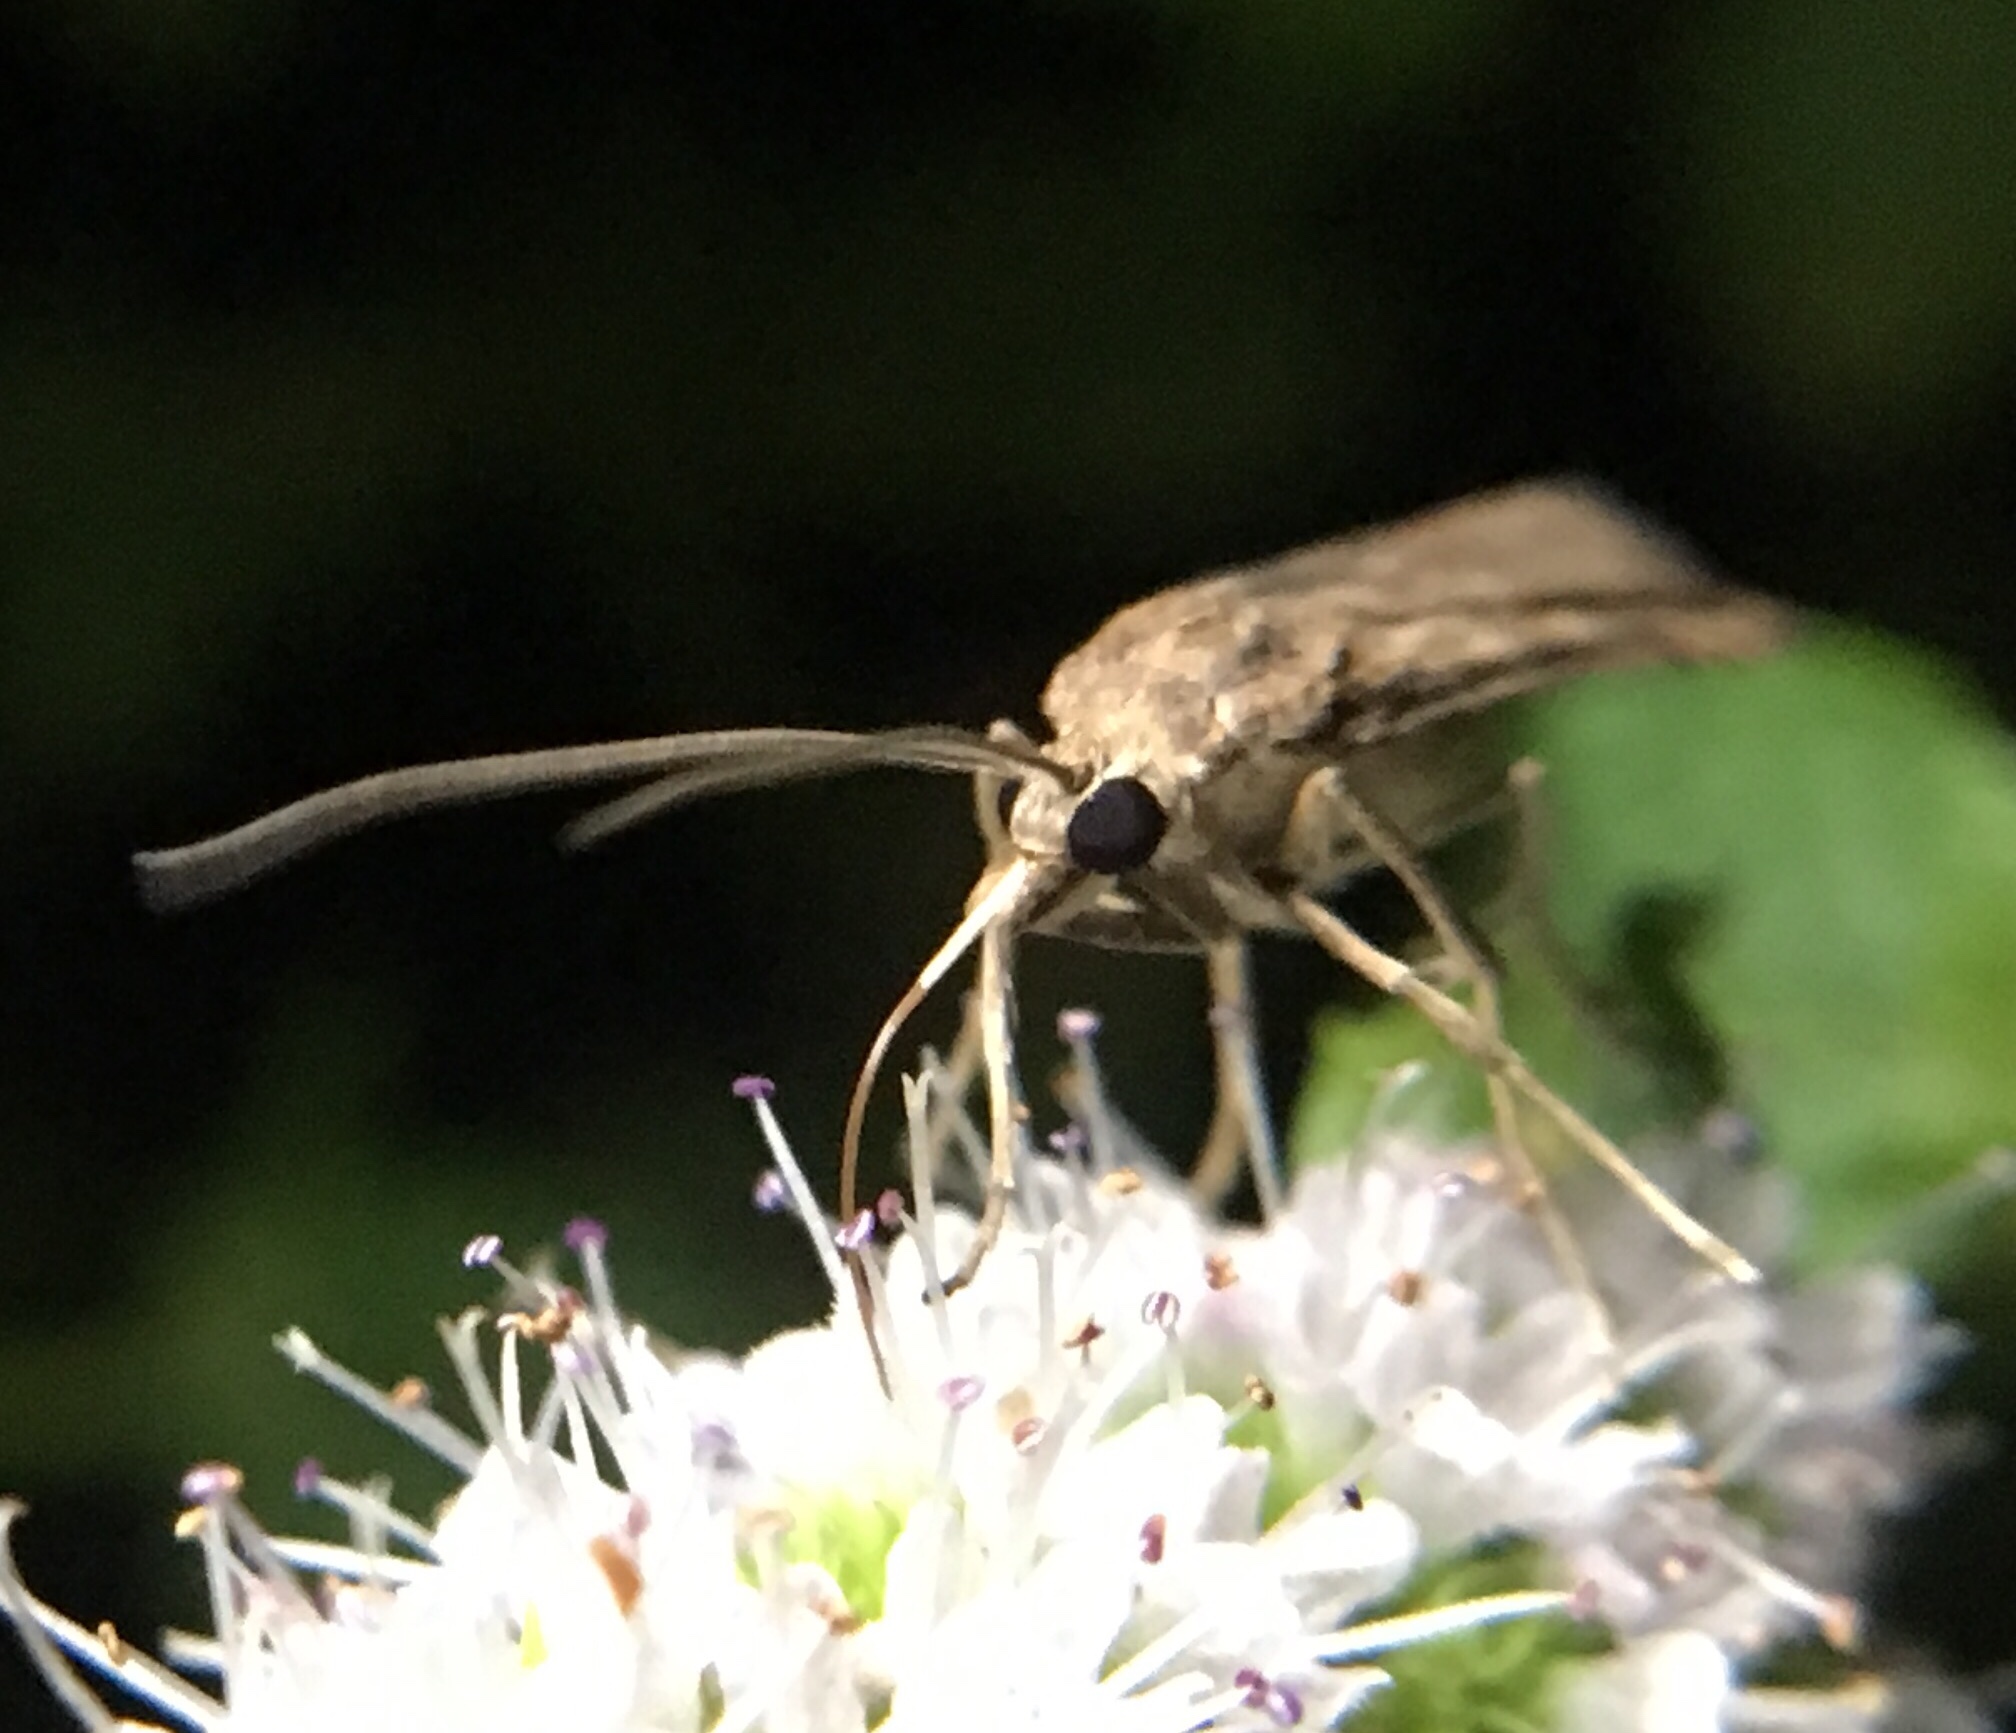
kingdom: Animalia
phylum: Arthropoda
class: Insecta
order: Lepidoptera
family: Crambidae
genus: Nomophila
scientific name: Nomophila nearctica
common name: American rush veneer
